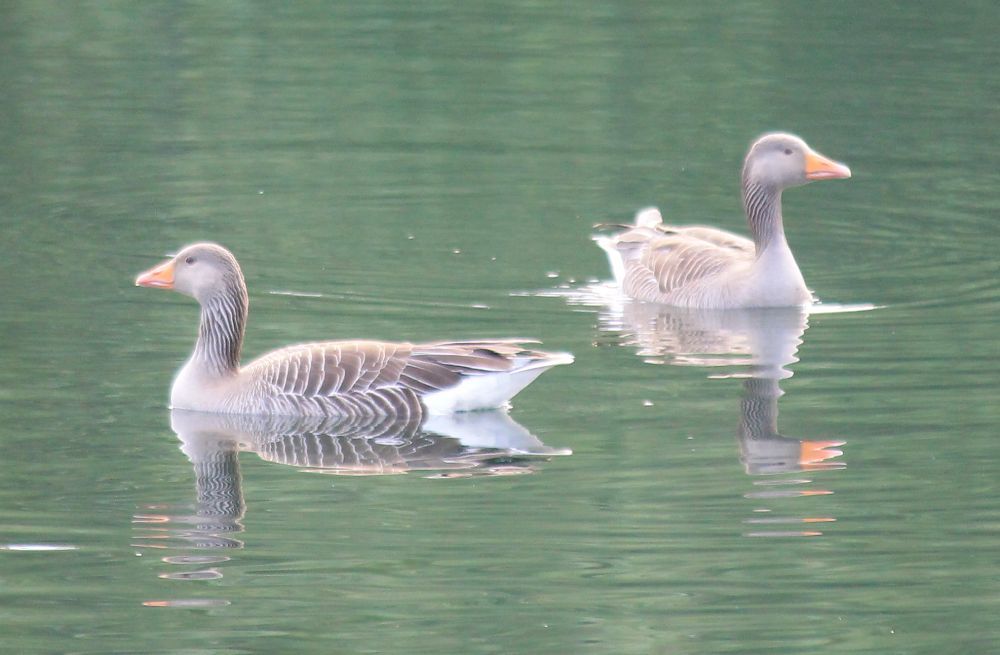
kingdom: Animalia
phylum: Chordata
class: Aves
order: Anseriformes
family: Anatidae
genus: Anser
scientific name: Anser anser
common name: Greylag goose
